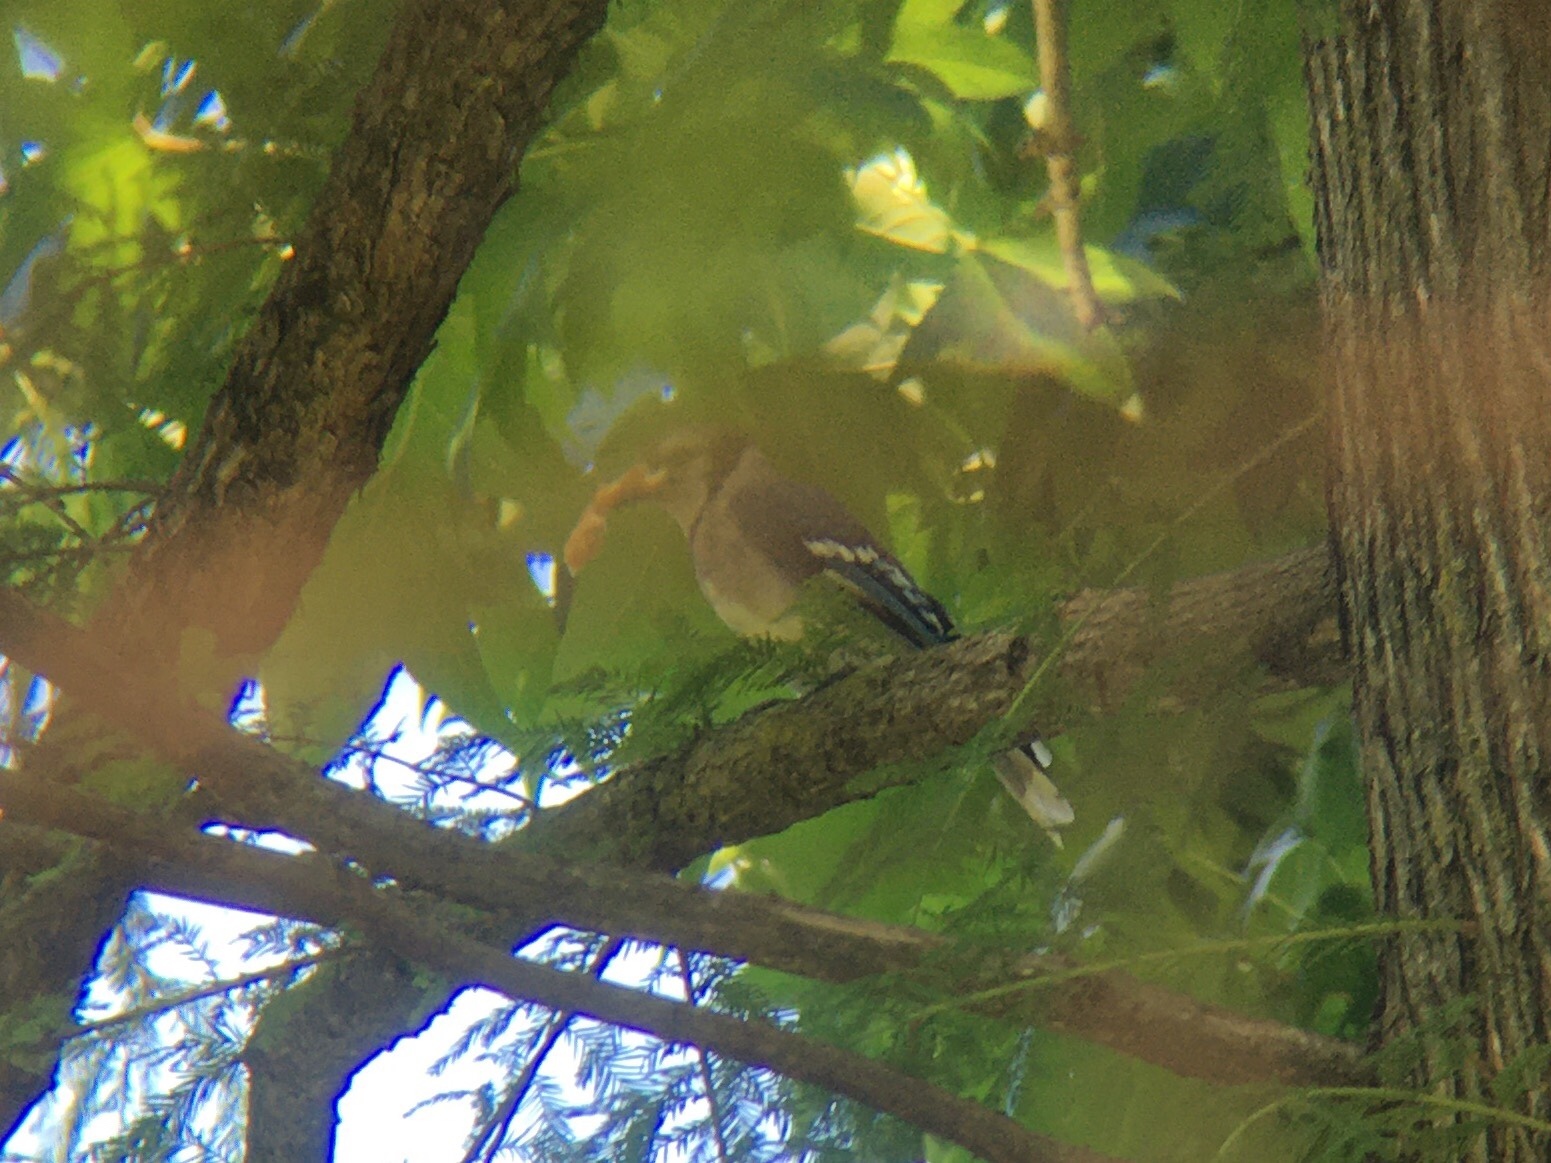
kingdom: Animalia
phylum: Chordata
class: Aves
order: Passeriformes
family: Corvidae
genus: Cyanocitta
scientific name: Cyanocitta cristata
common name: Blue jay
